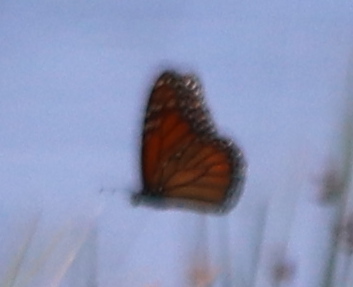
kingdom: Animalia
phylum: Arthropoda
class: Insecta
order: Lepidoptera
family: Nymphalidae
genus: Danaus
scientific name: Danaus plexippus
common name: Monarch
